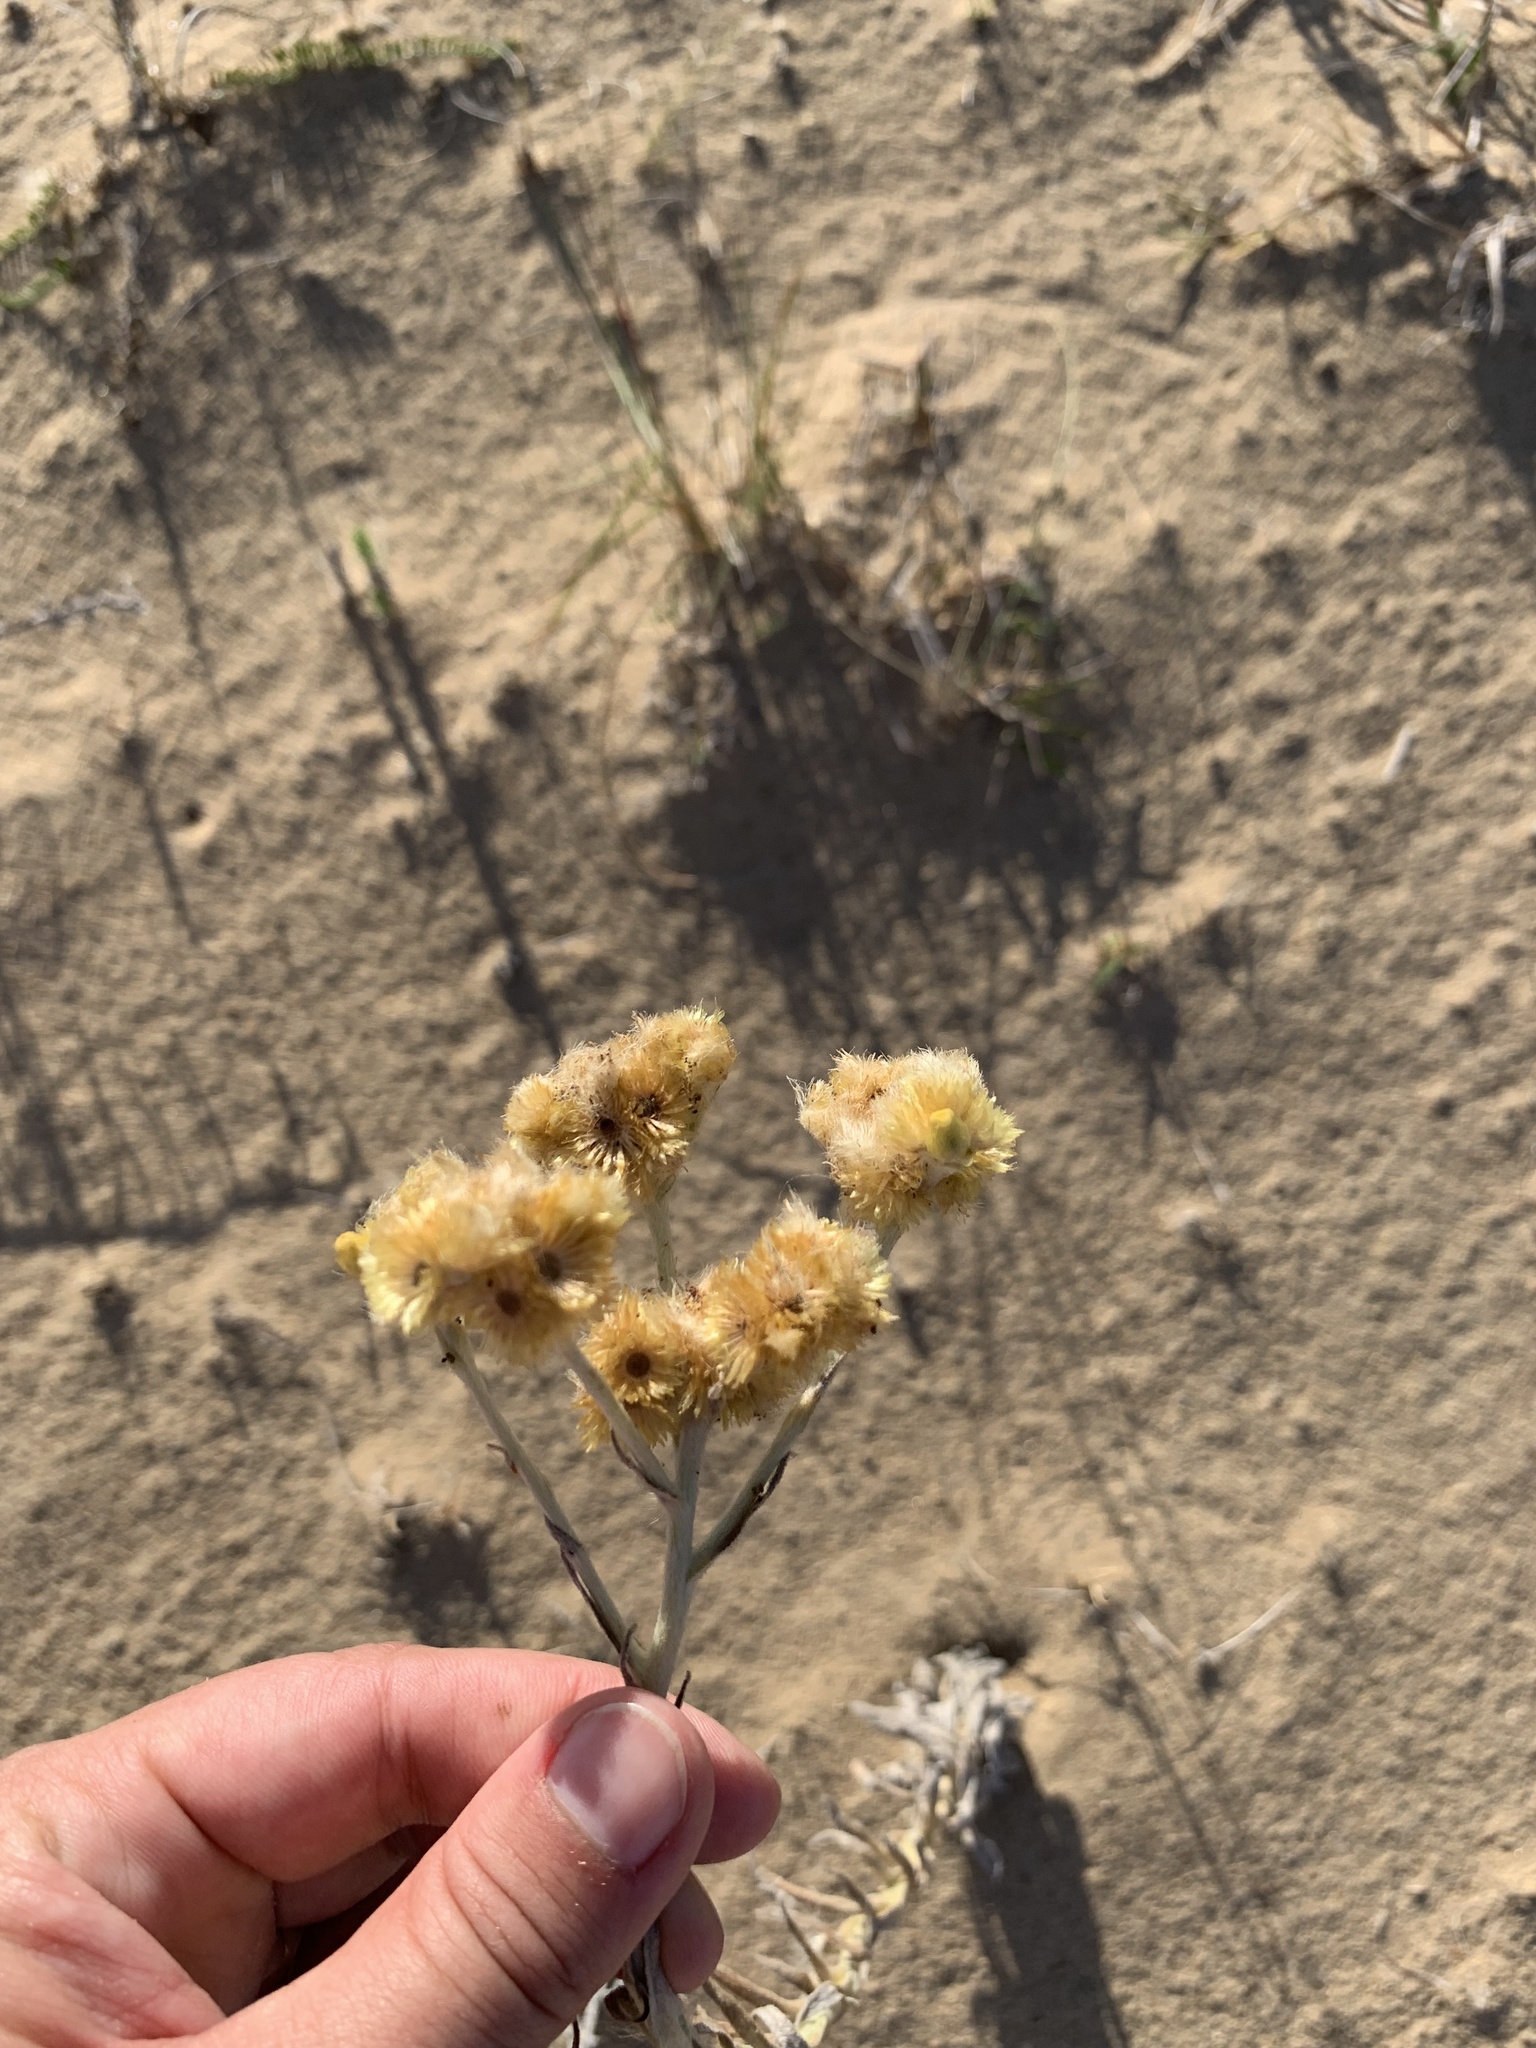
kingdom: Plantae
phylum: Tracheophyta
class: Magnoliopsida
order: Asterales
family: Asteraceae
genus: Pseudognaphalium
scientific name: Pseudognaphalium cheiranthifolium
